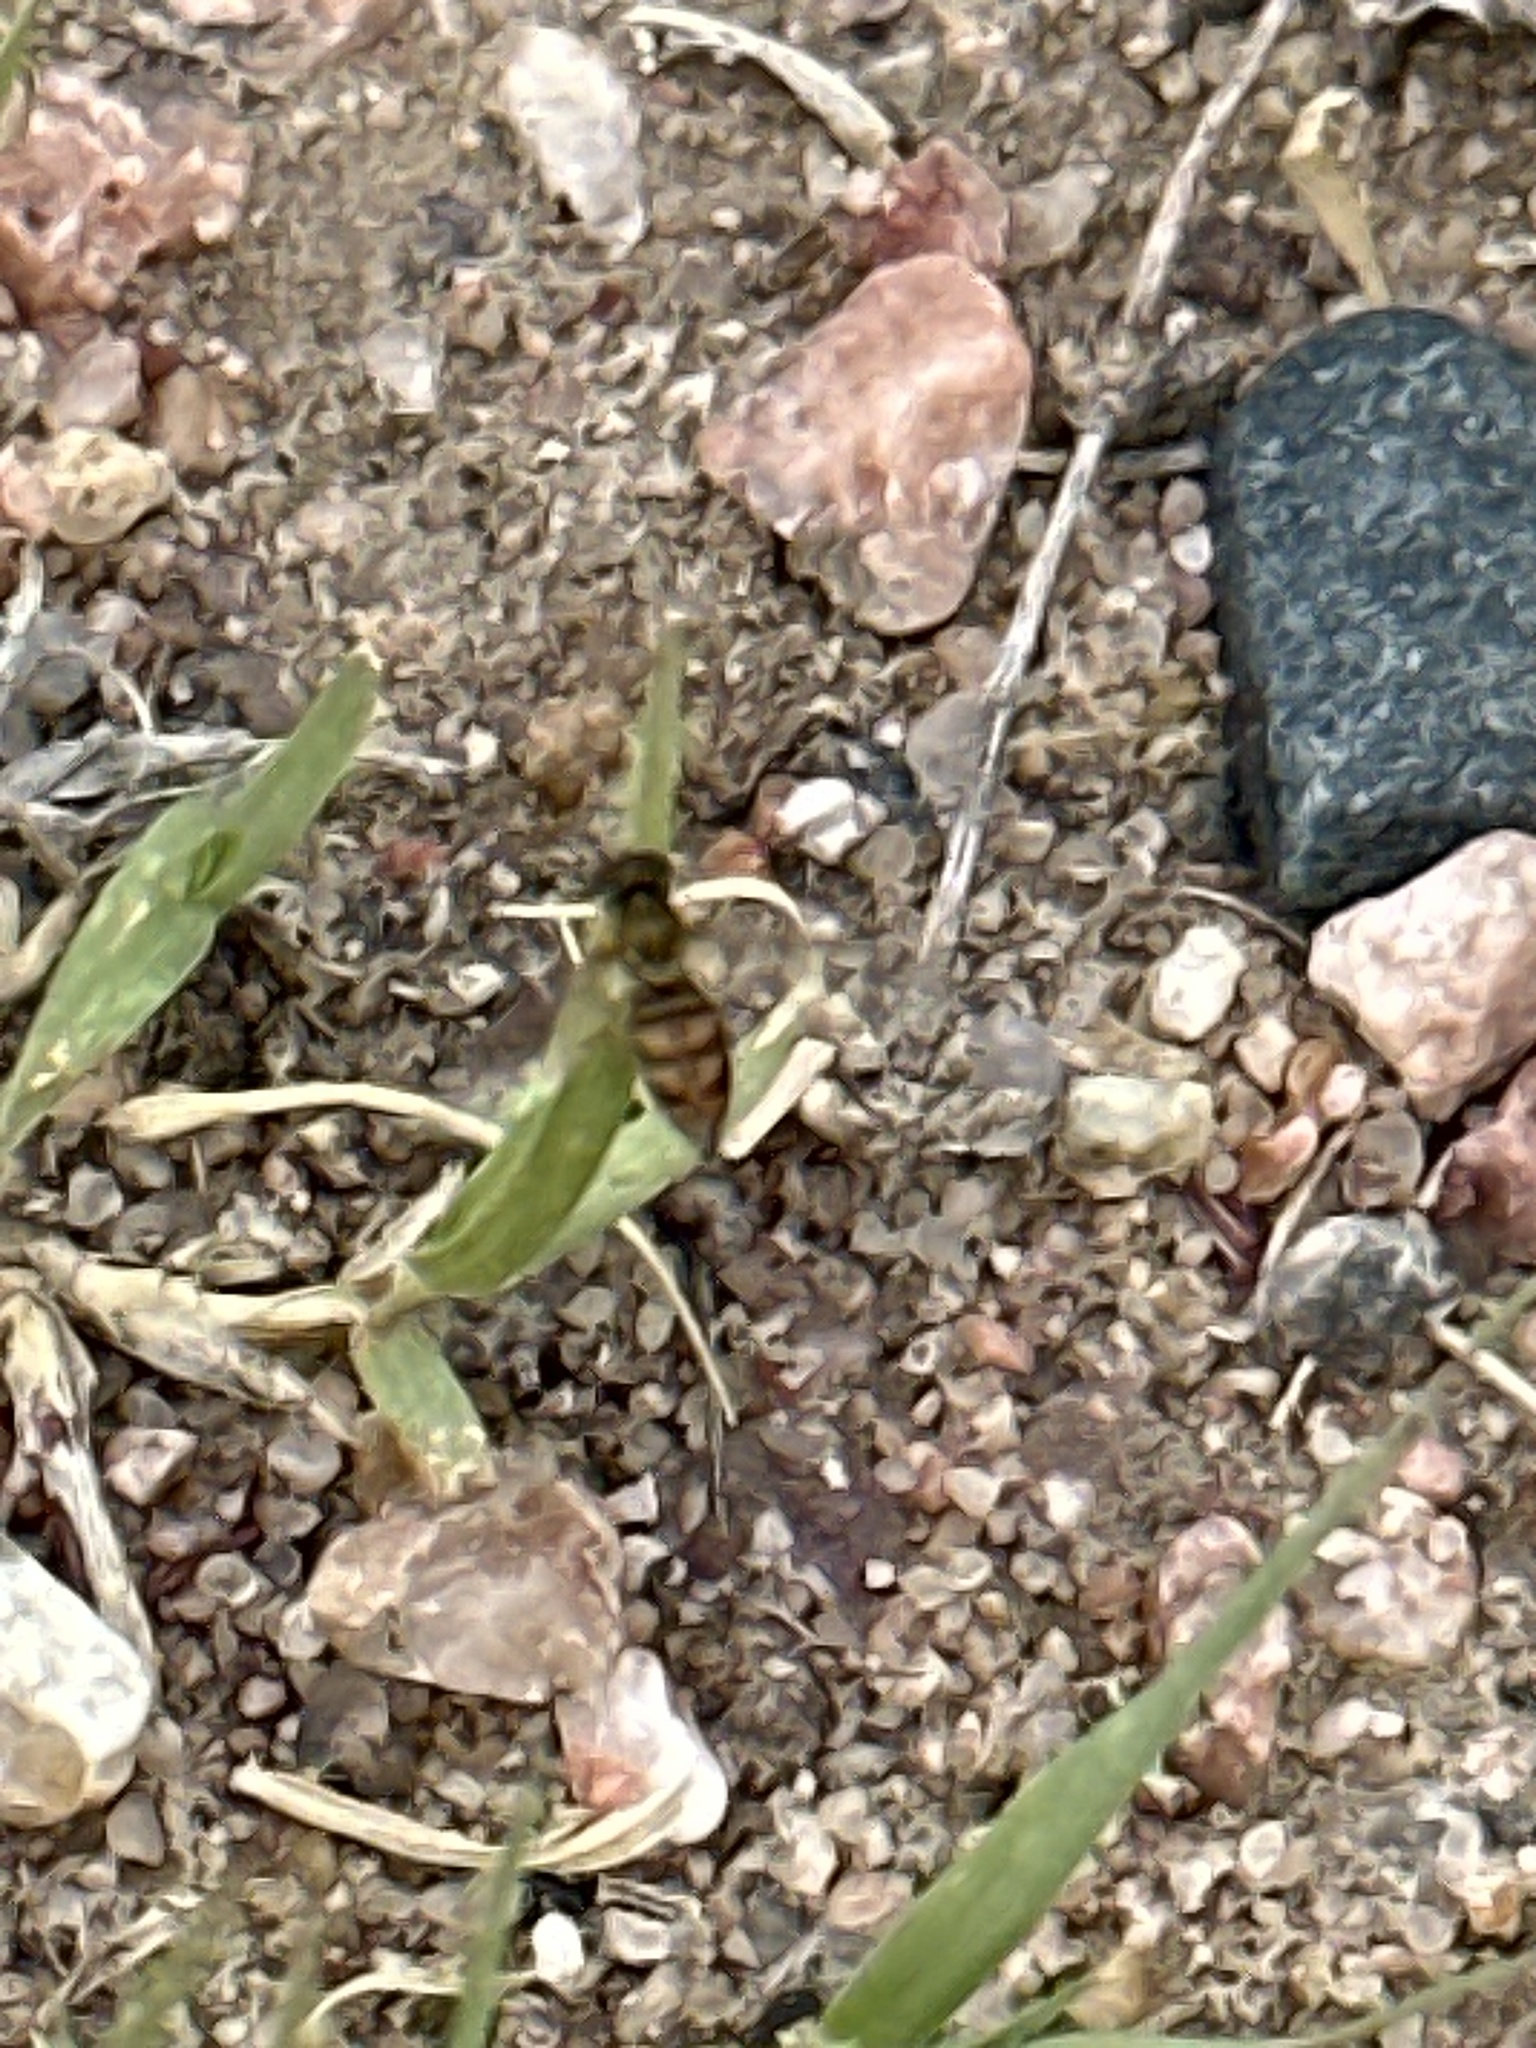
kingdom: Animalia
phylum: Arthropoda
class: Insecta
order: Diptera
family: Syrphidae
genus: Toxomerus
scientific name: Toxomerus marginatus
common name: Syrphid fly
